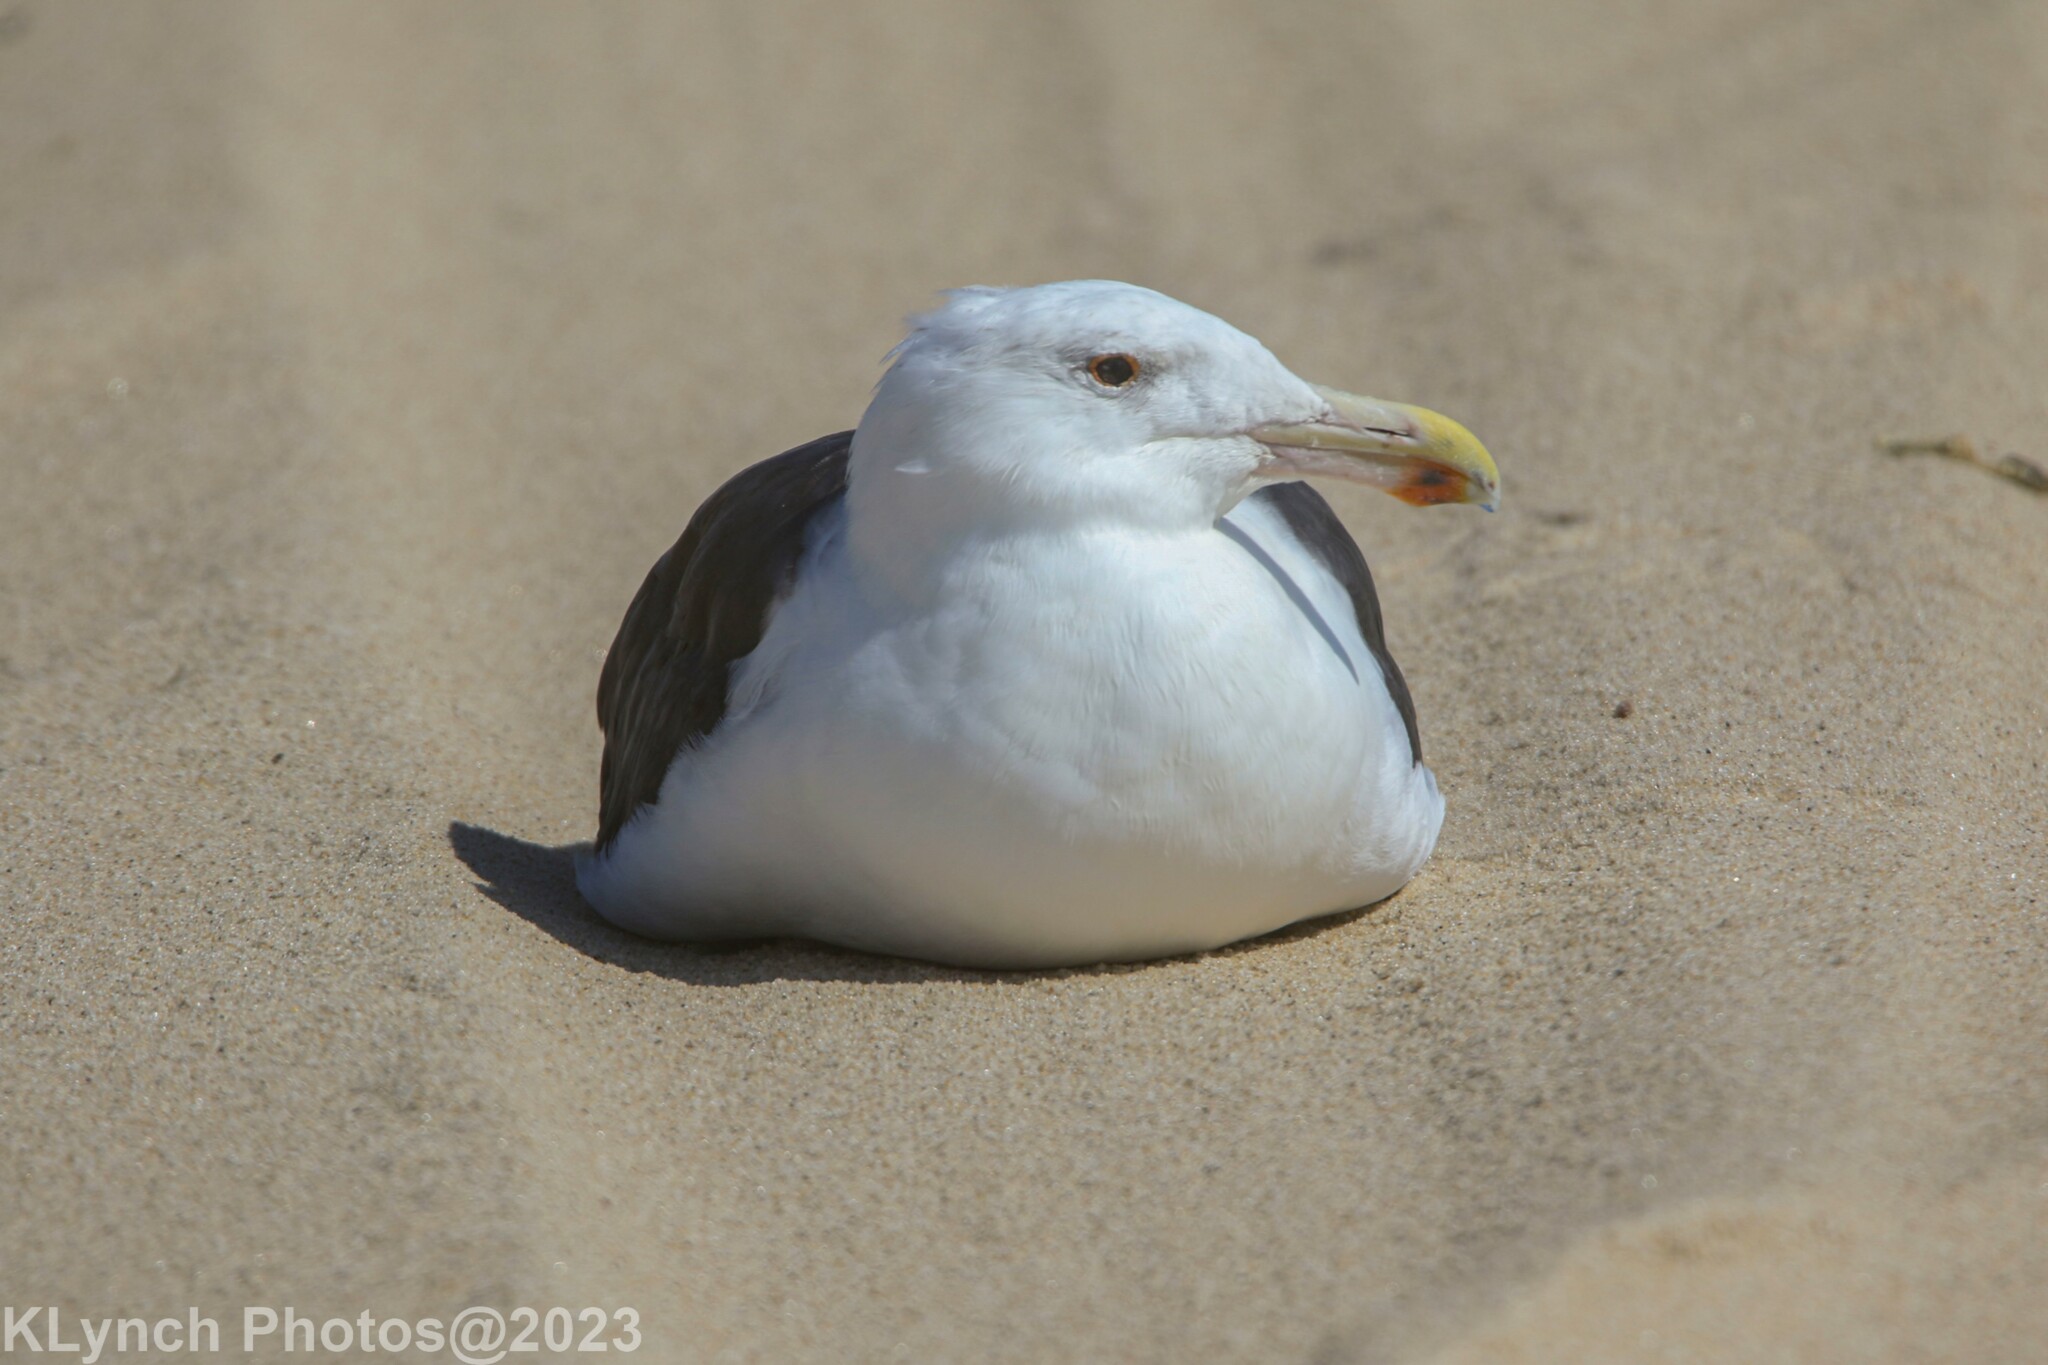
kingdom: Animalia
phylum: Chordata
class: Aves
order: Charadriiformes
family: Laridae
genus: Larus
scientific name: Larus marinus
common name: Great black-backed gull
